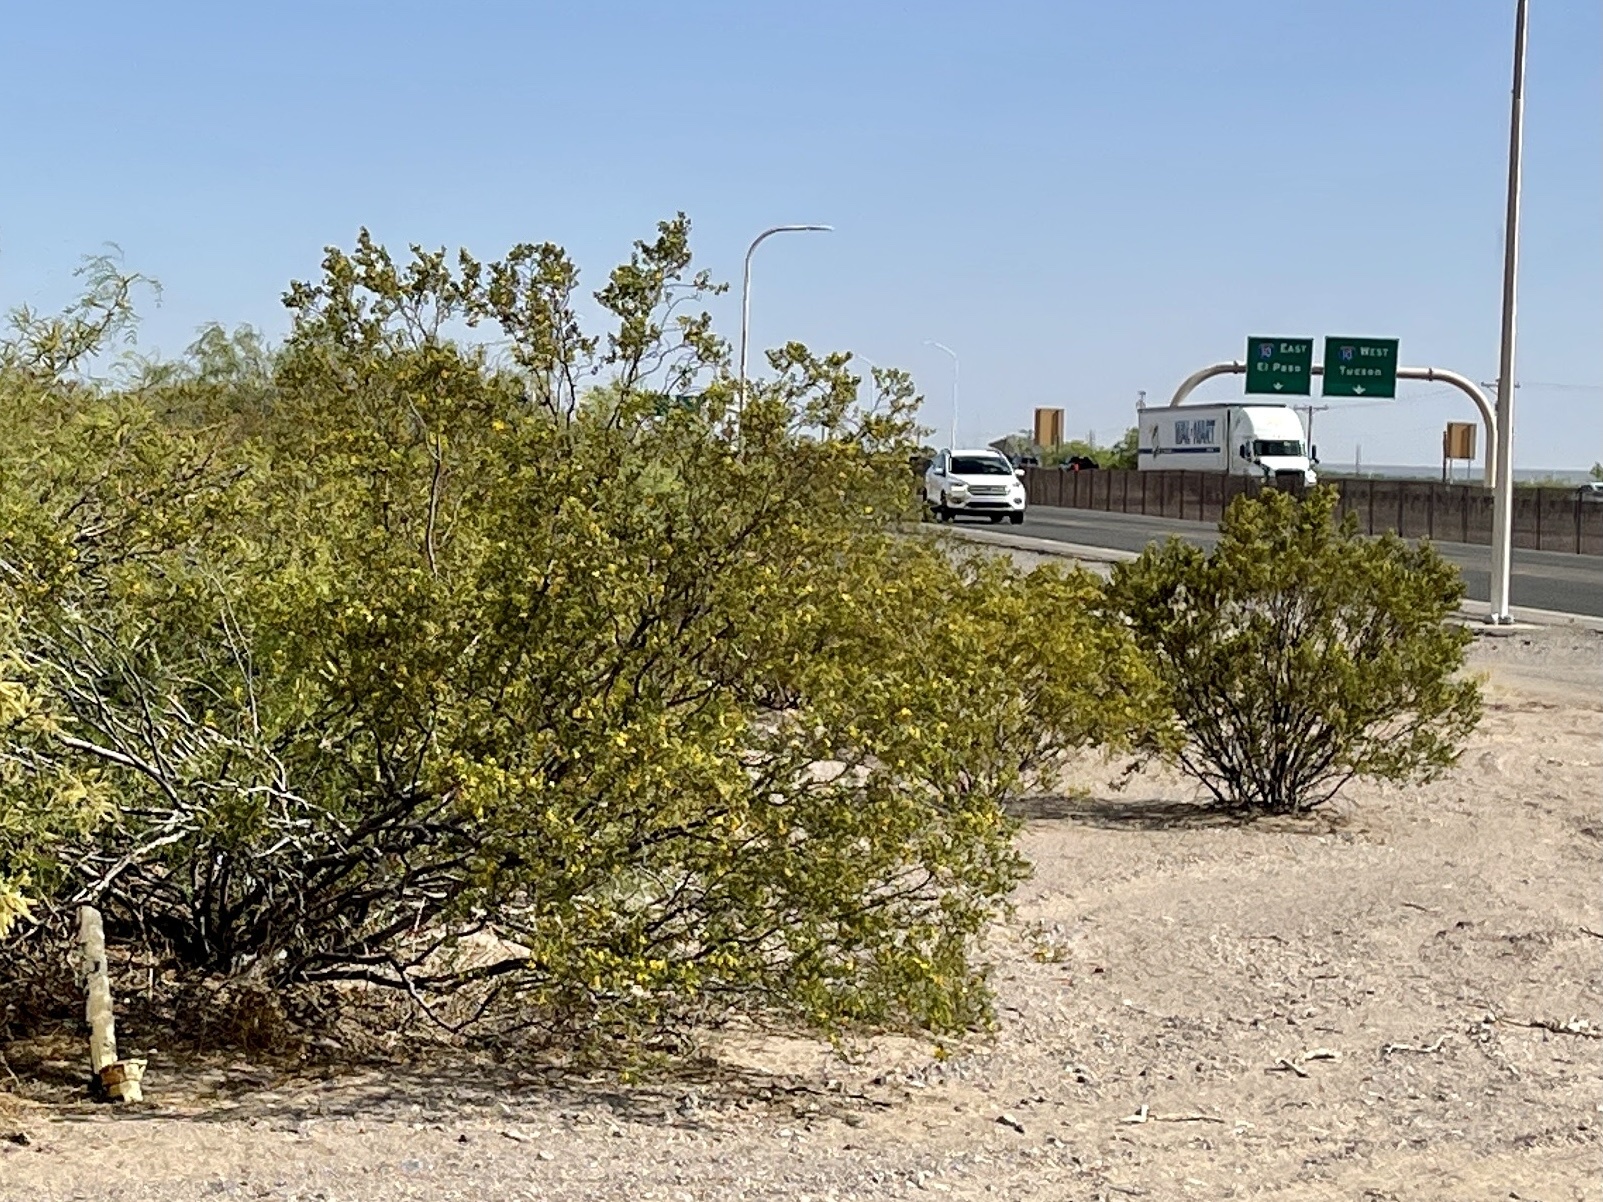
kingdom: Plantae
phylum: Tracheophyta
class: Magnoliopsida
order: Zygophyllales
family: Zygophyllaceae
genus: Larrea
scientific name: Larrea tridentata
